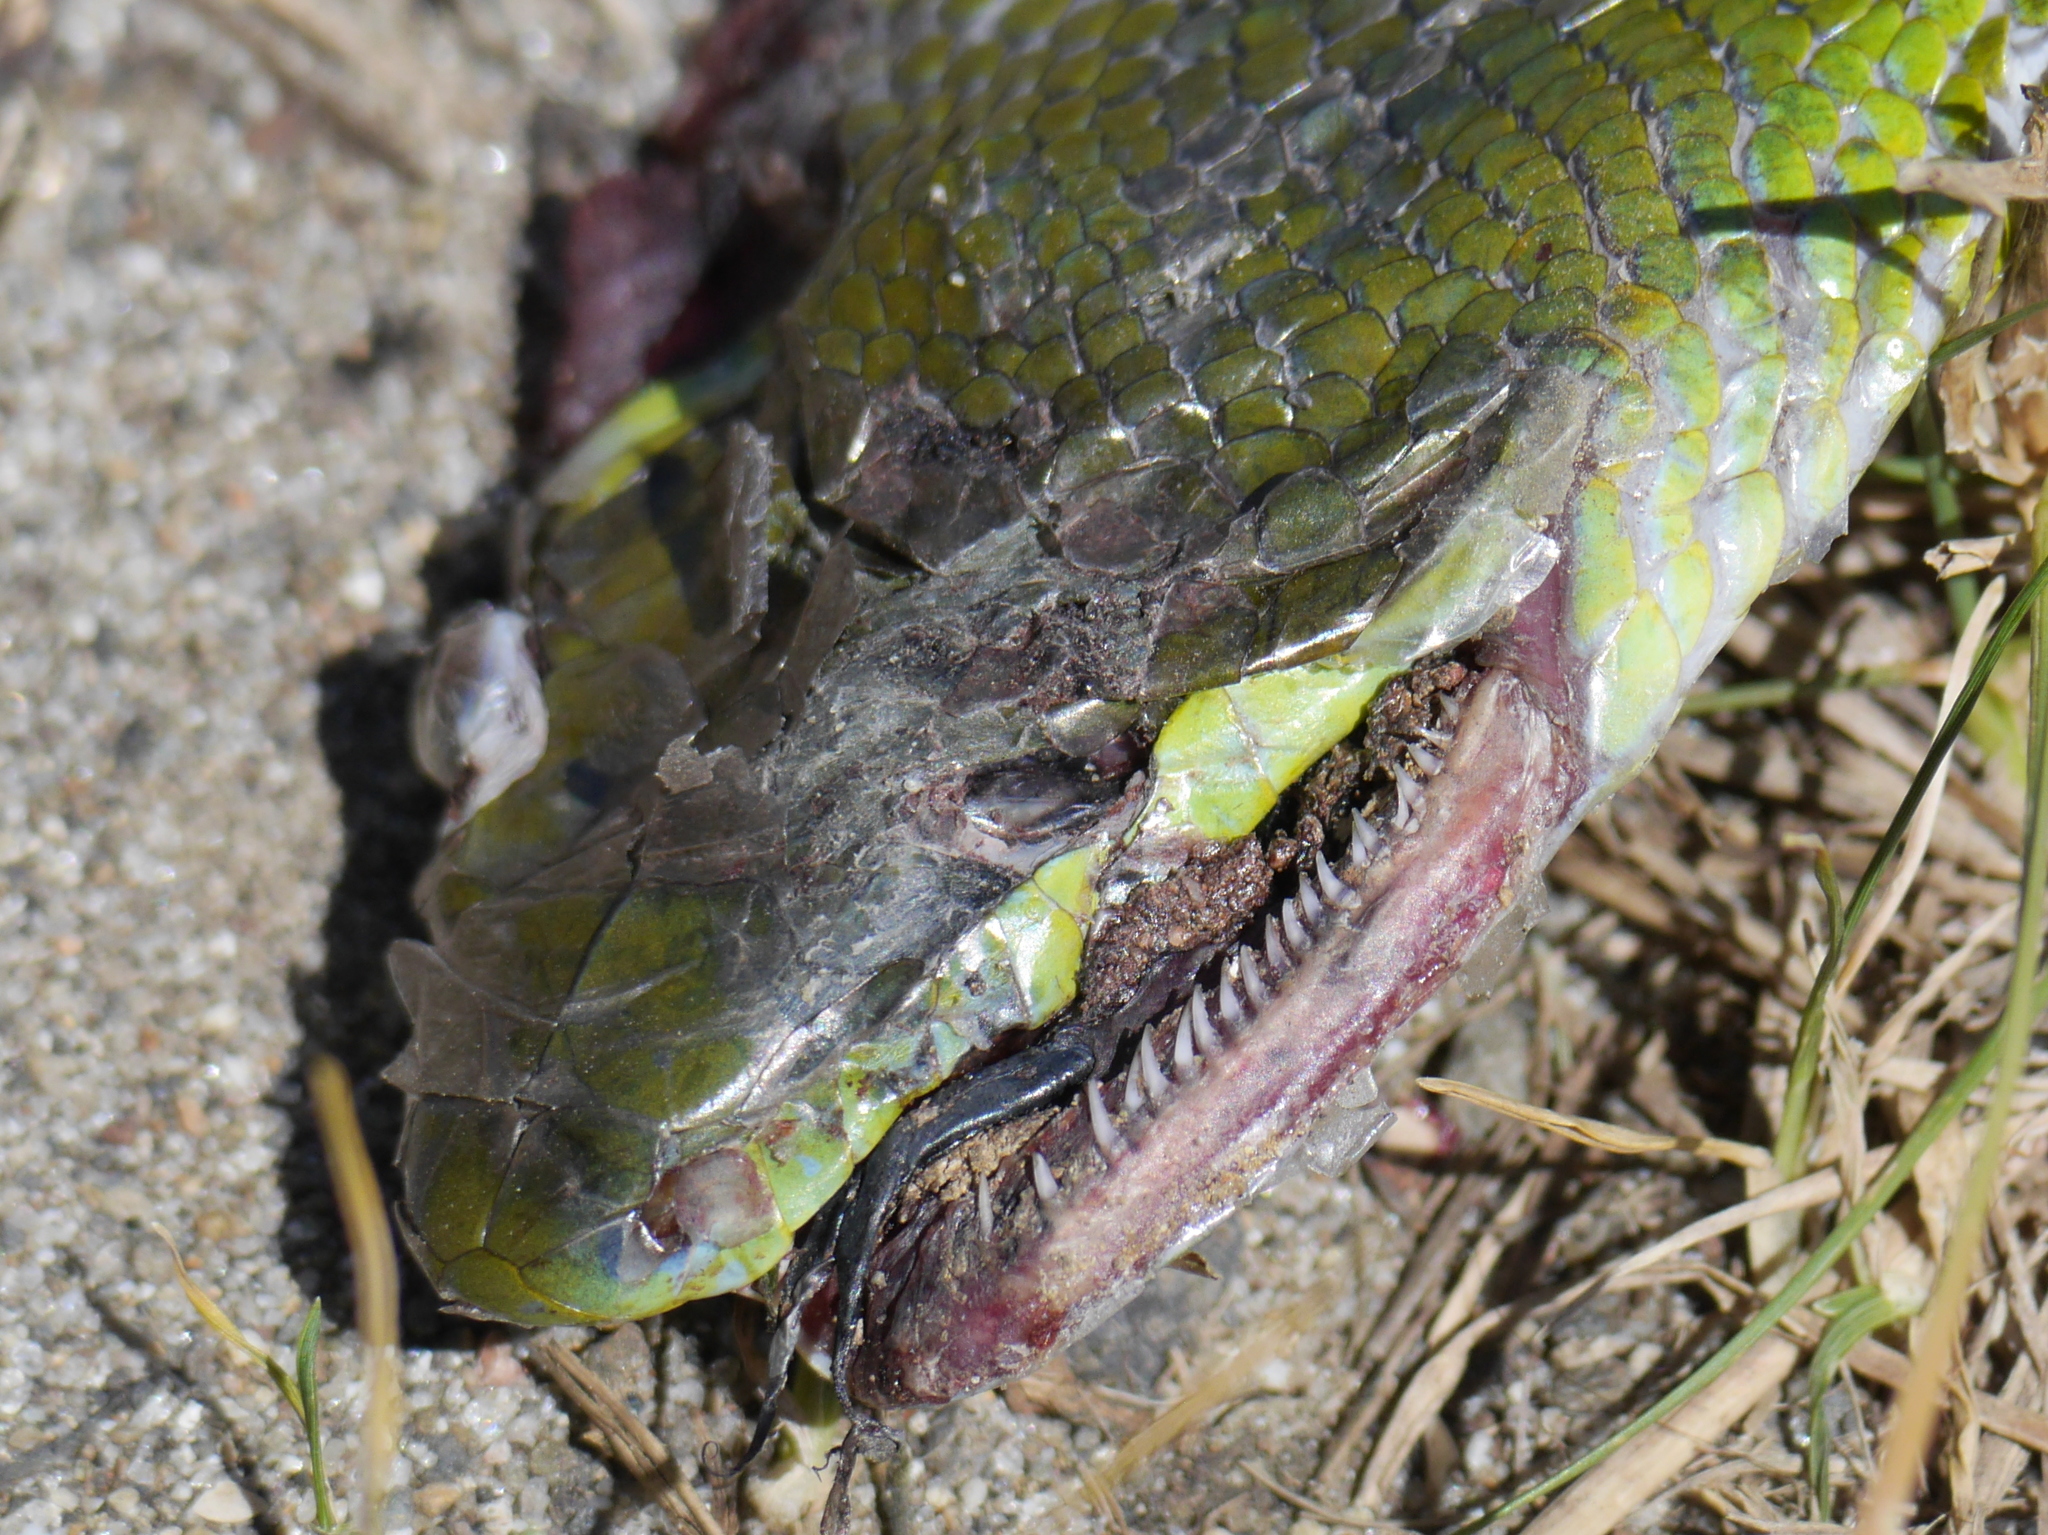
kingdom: Animalia
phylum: Chordata
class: Squamata
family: Colubridae
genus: Gonyosoma
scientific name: Gonyosoma oxycephalum
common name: Red-tailed racer
